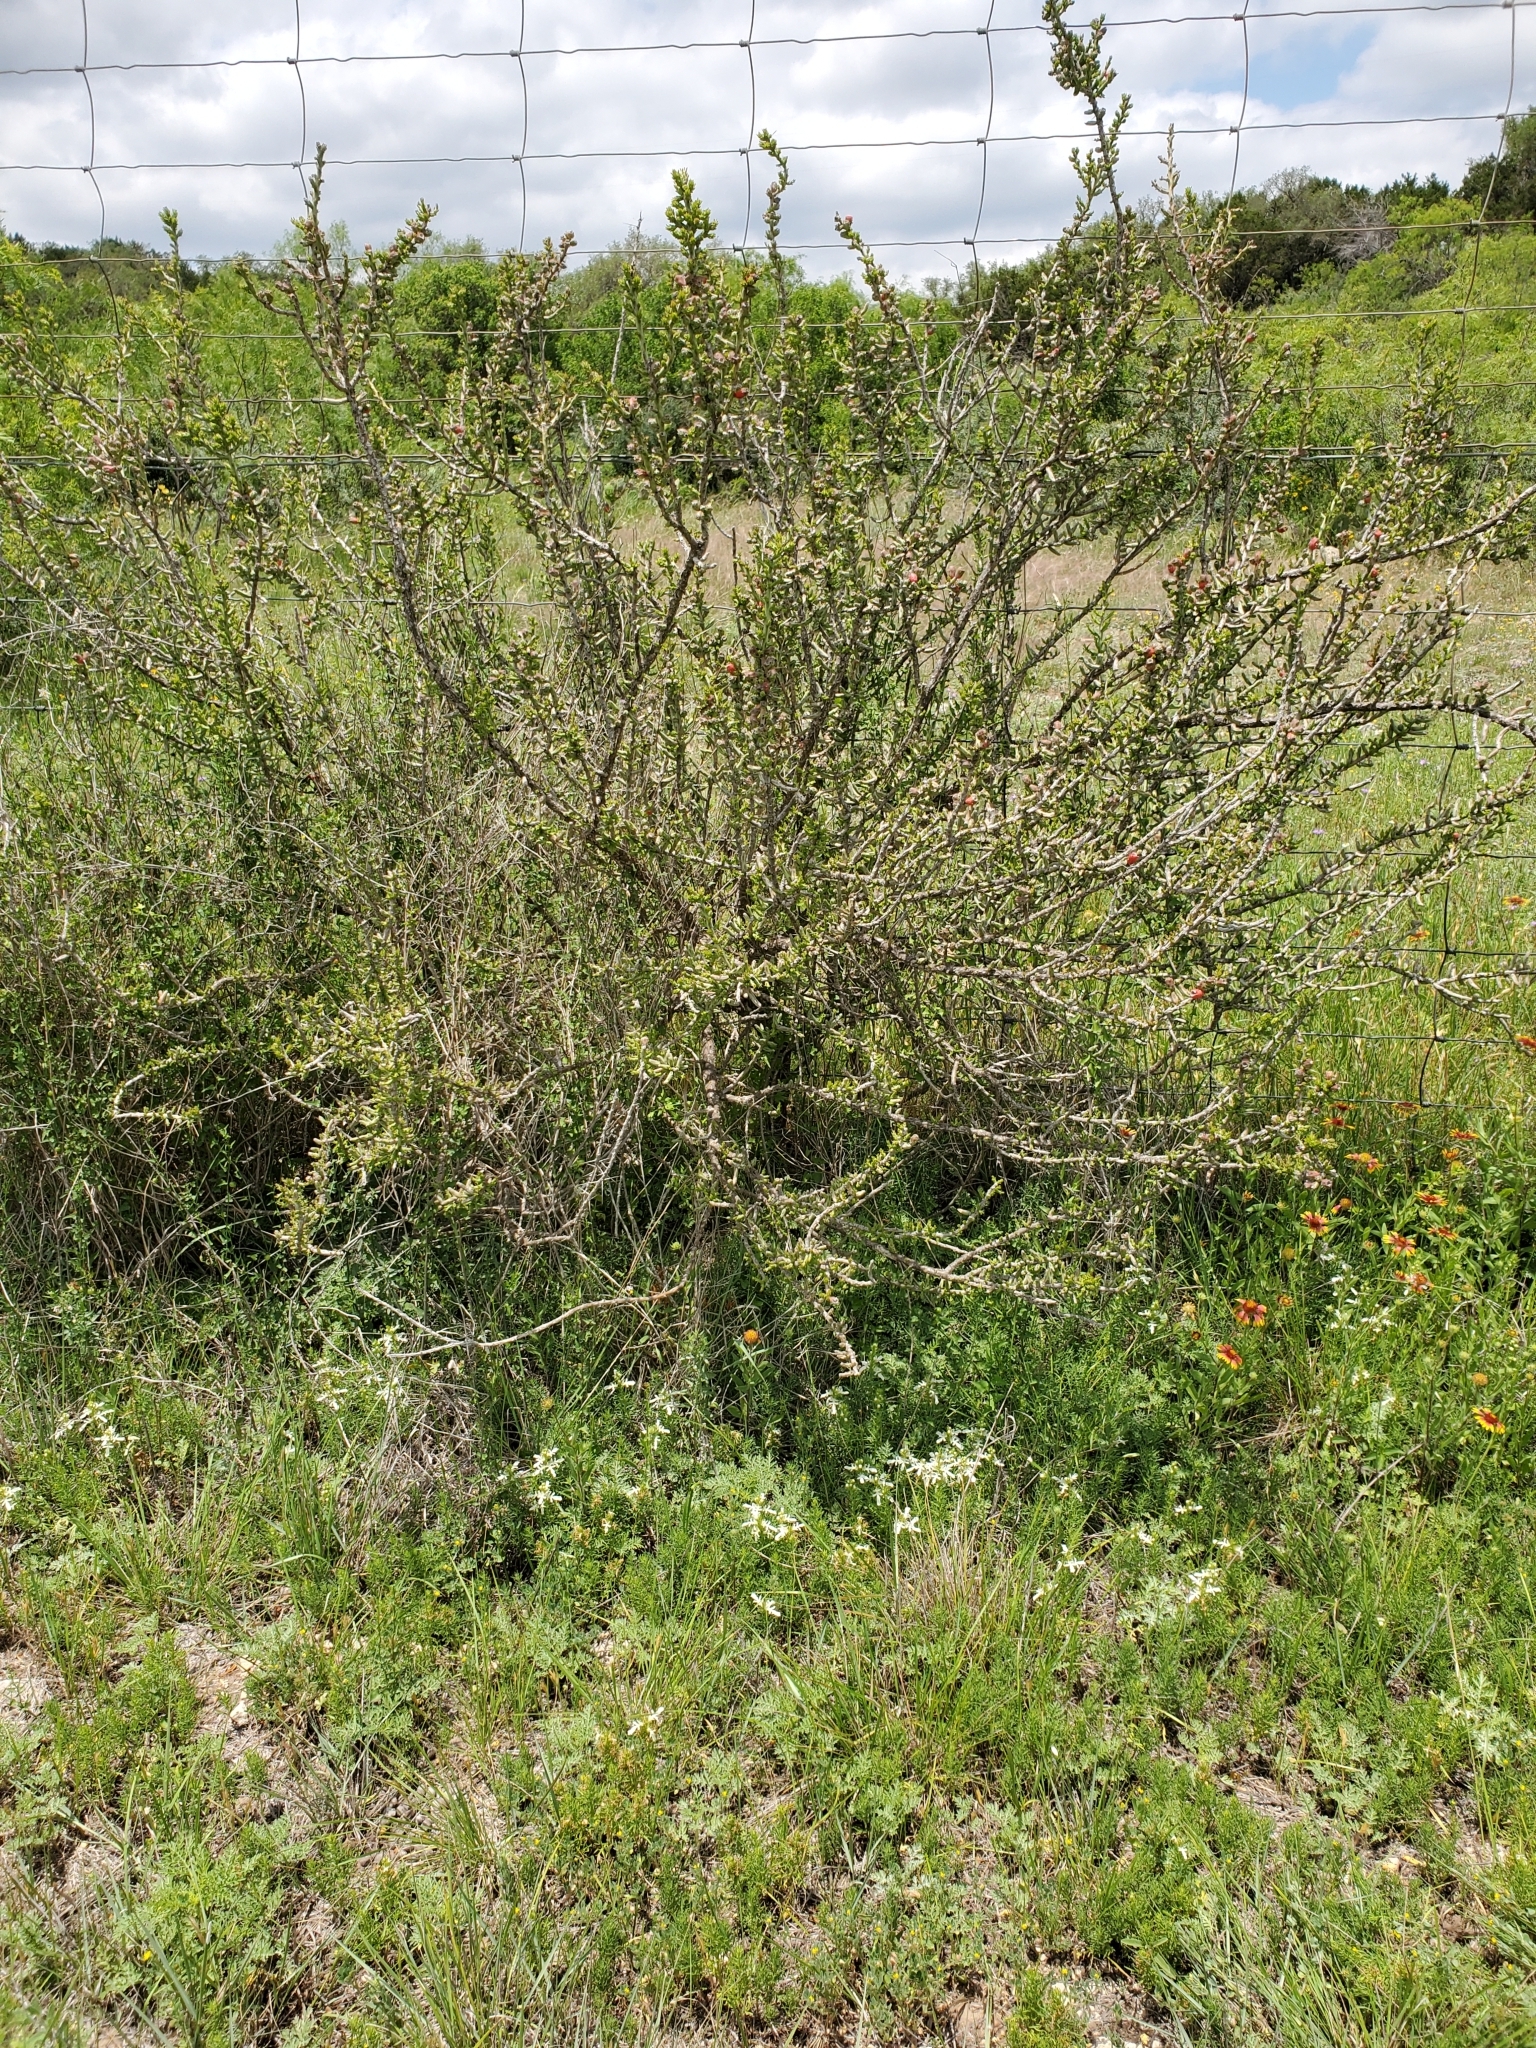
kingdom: Plantae
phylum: Tracheophyta
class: Magnoliopsida
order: Caryophyllales
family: Cactaceae
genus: Cylindropuntia
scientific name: Cylindropuntia leptocaulis
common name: Christmas cactus
